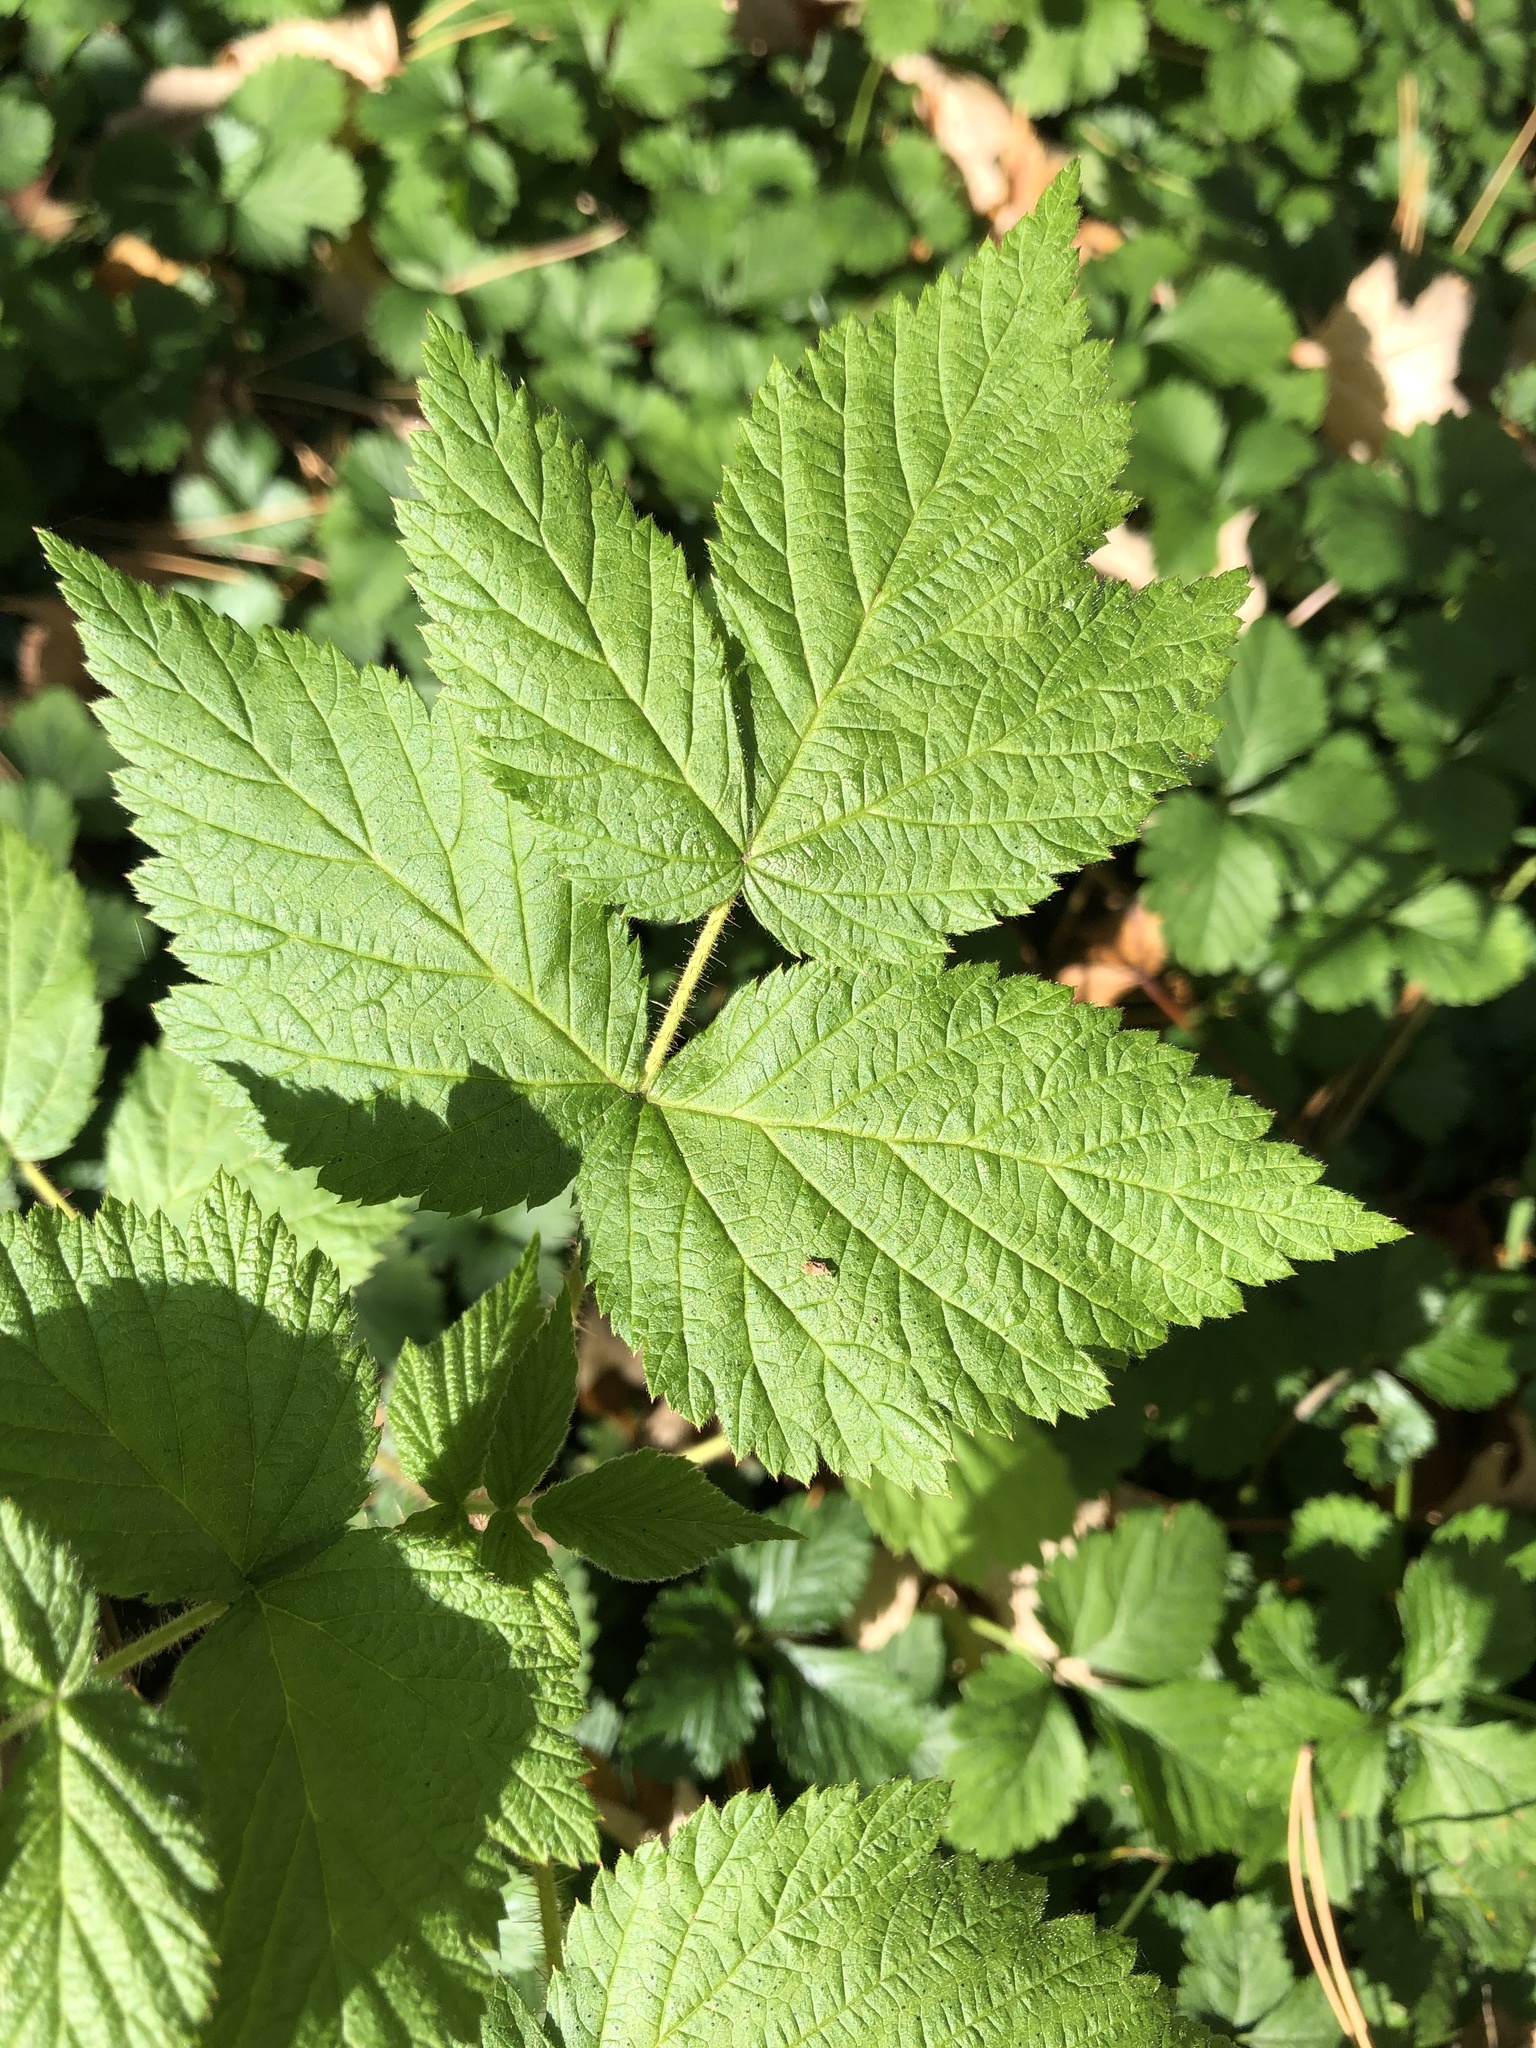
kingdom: Plantae
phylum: Tracheophyta
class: Magnoliopsida
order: Rosales
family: Rosaceae
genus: Rubus
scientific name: Rubus idaeus
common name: Raspberry
